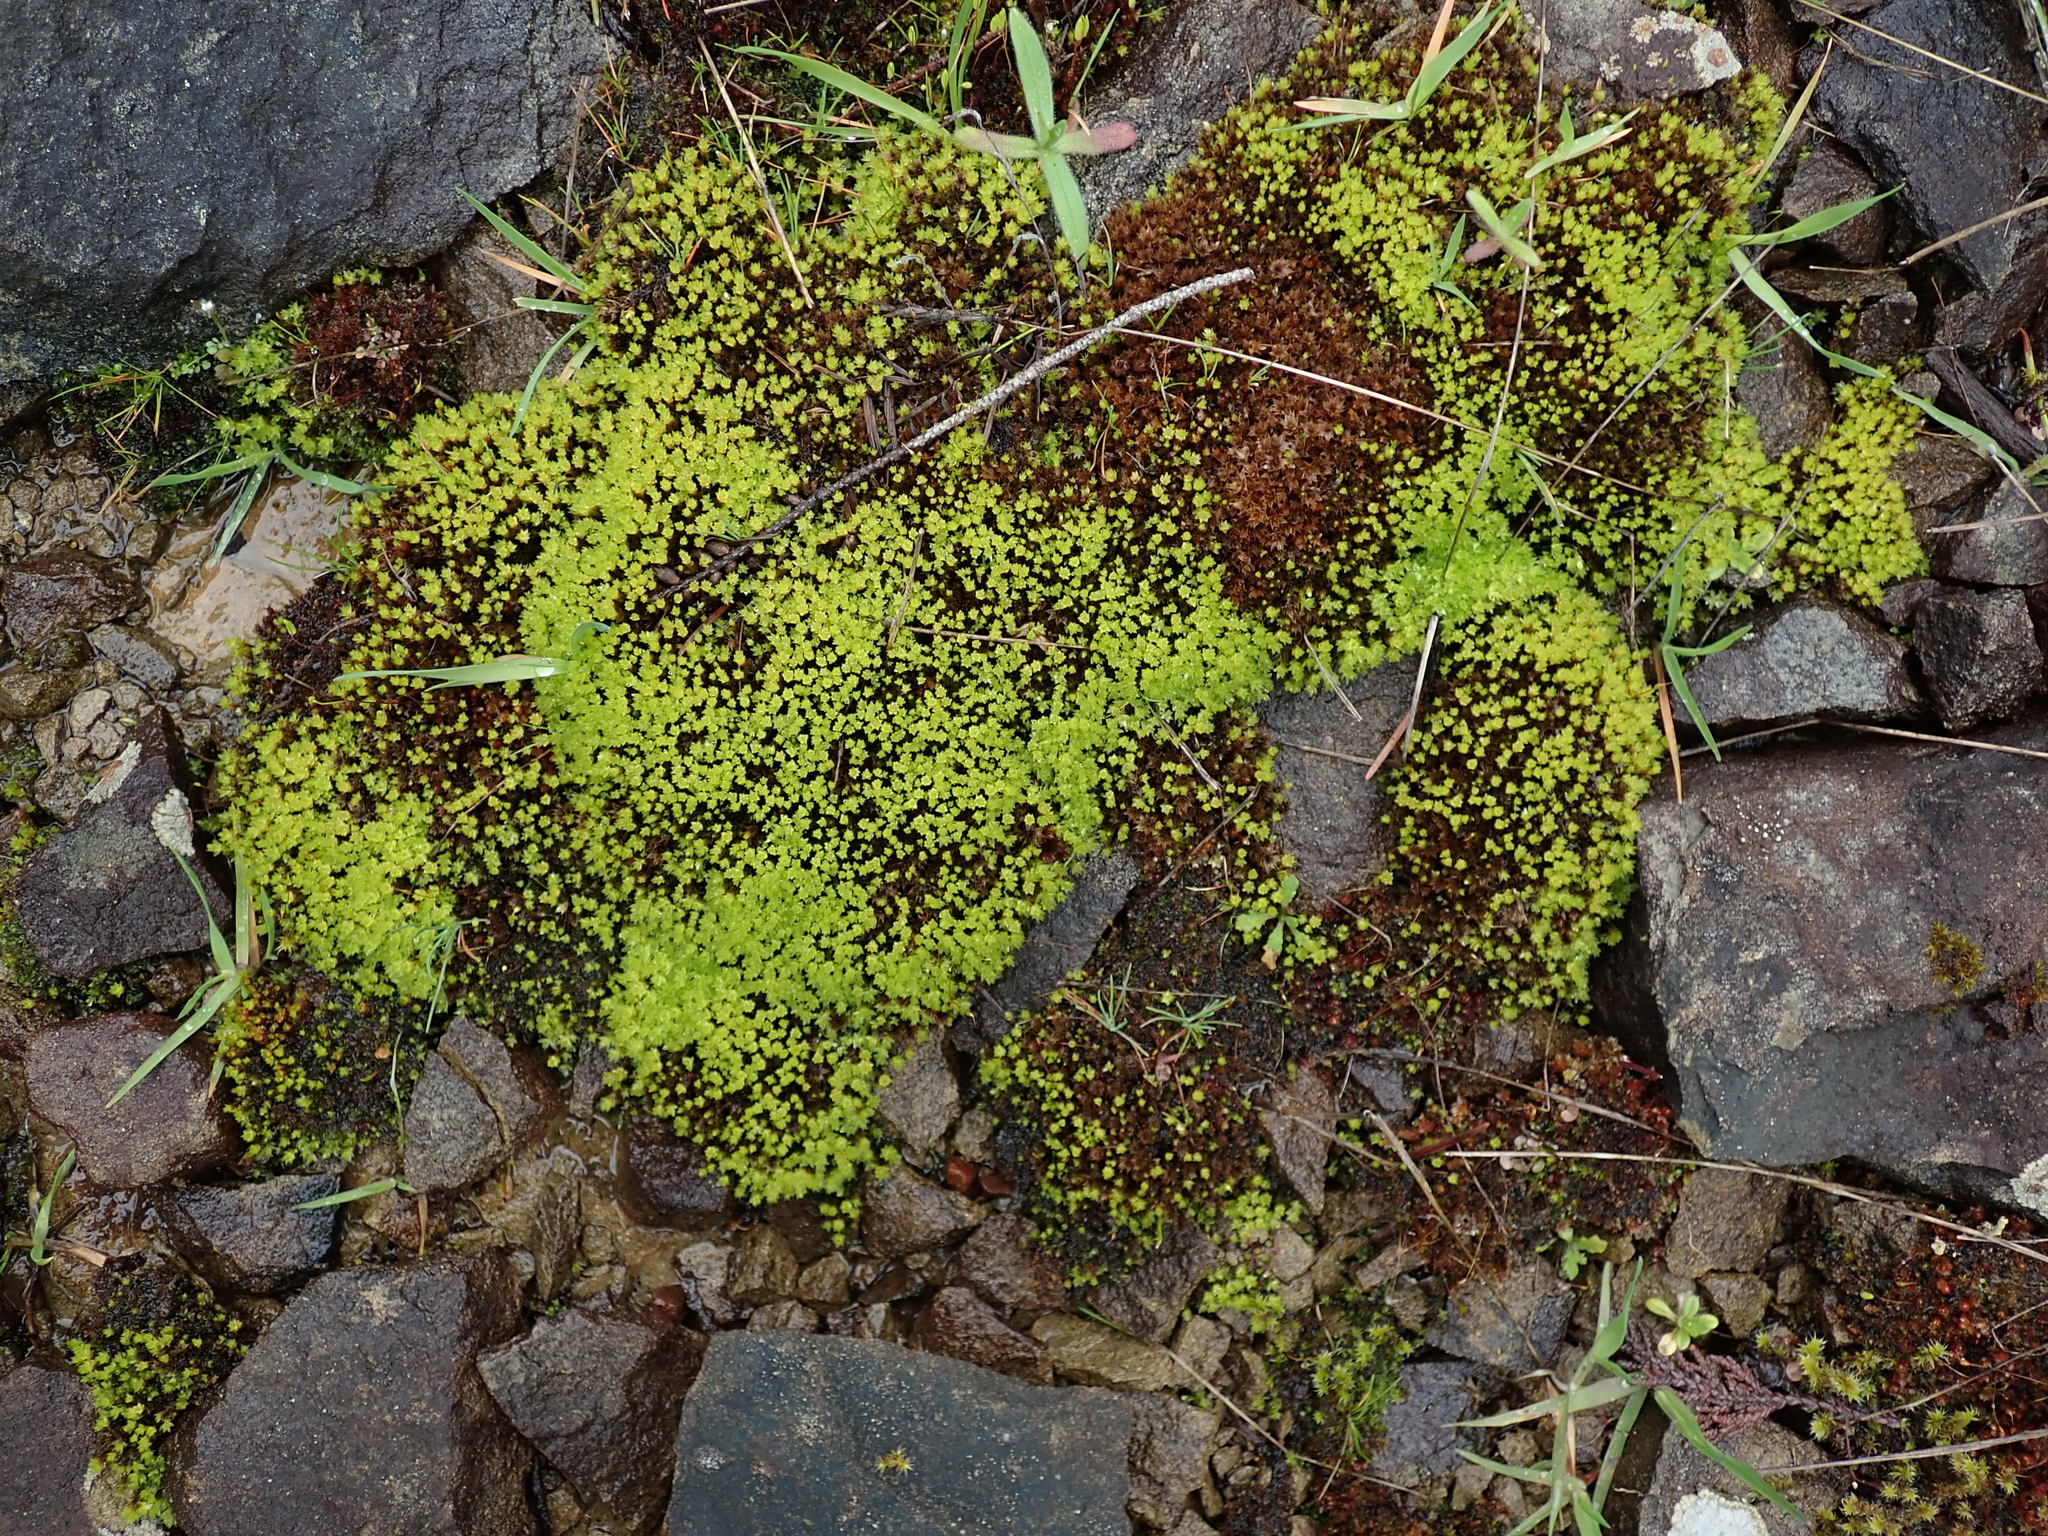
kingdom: Plantae
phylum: Bryophyta
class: Bryopsida
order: Bryales
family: Bryaceae
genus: Imbribryum
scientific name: Imbribryum miniatum
